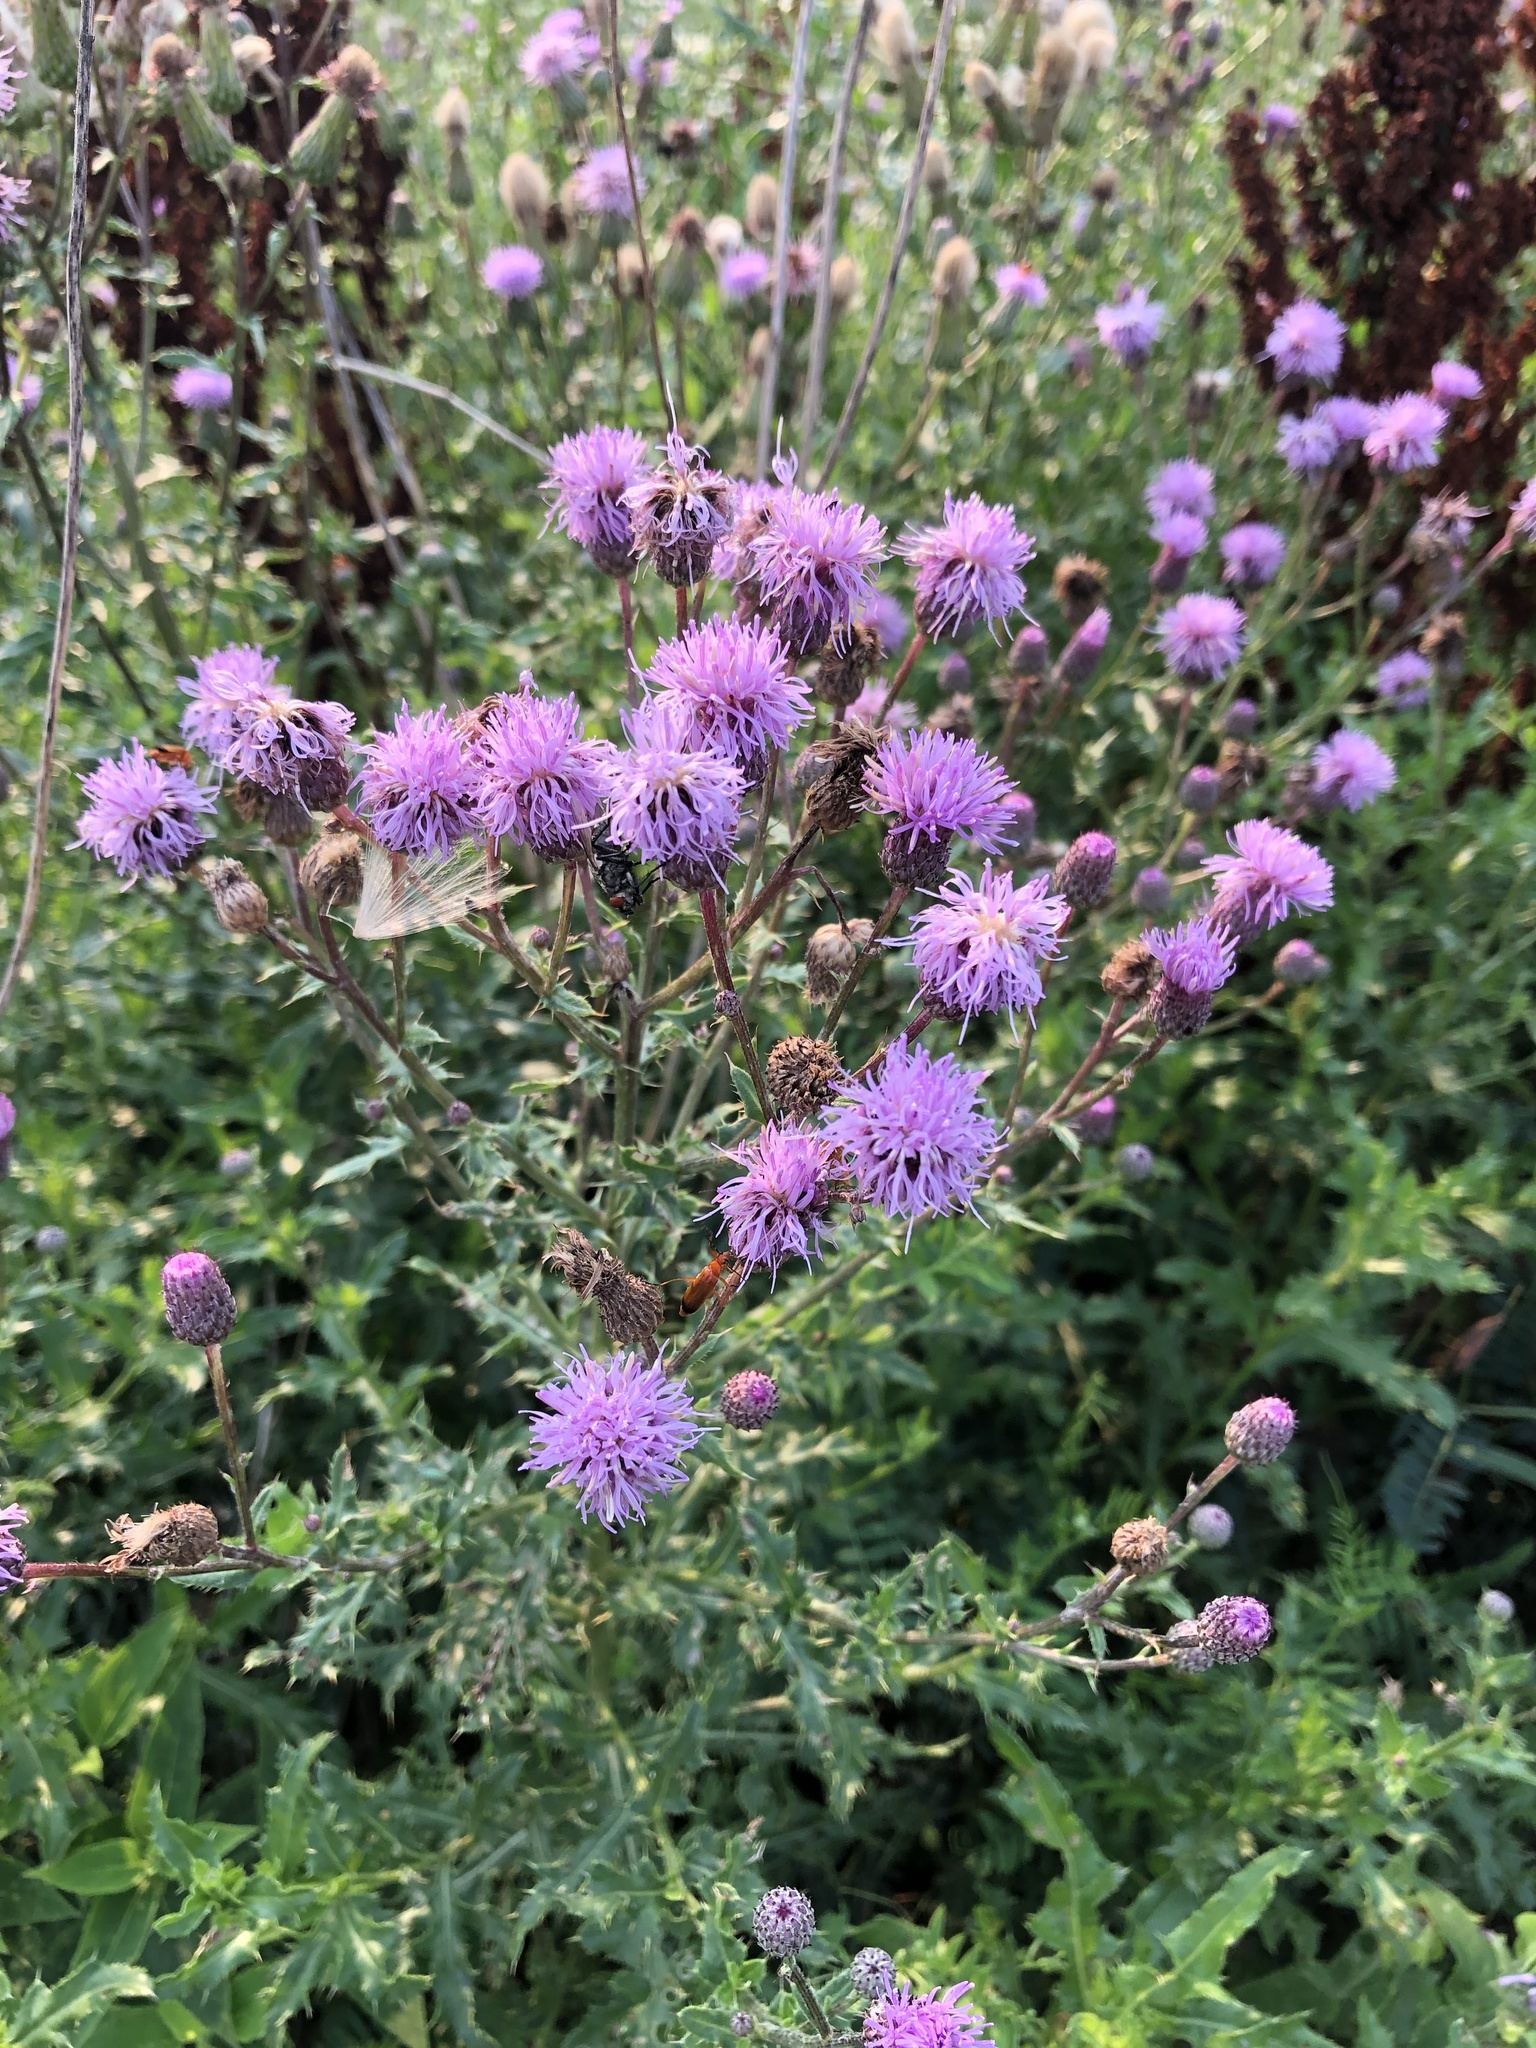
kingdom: Plantae
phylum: Tracheophyta
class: Magnoliopsida
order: Asterales
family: Asteraceae
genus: Cirsium
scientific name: Cirsium arvense
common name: Creeping thistle
